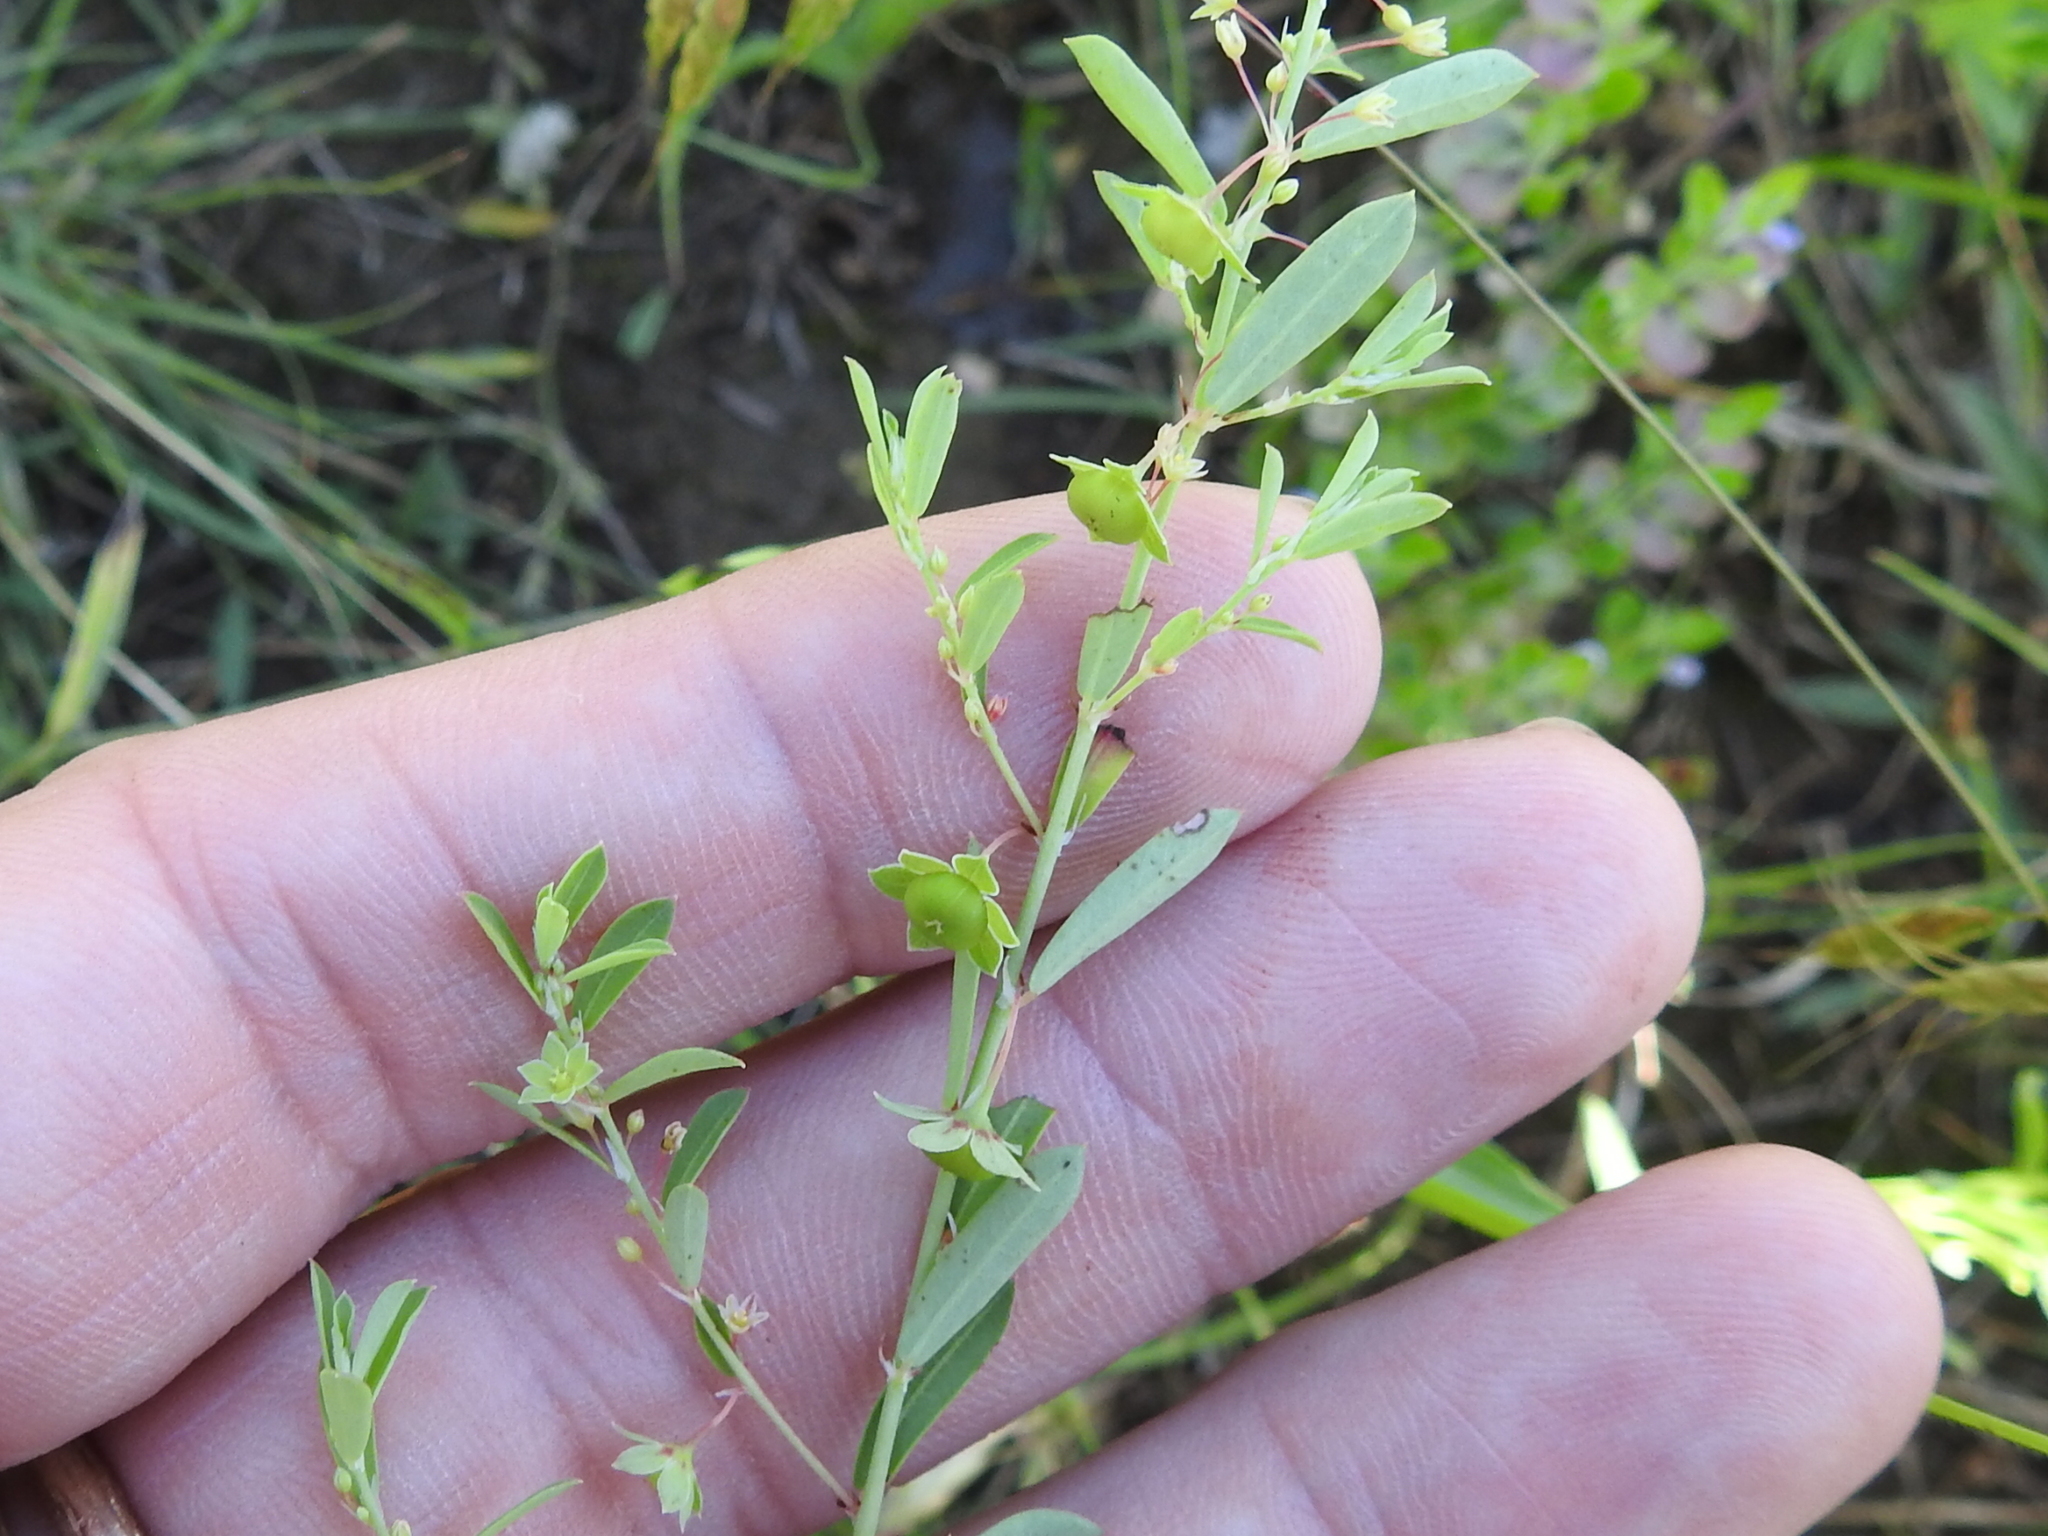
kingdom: Plantae
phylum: Tracheophyta
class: Magnoliopsida
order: Malpighiales
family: Phyllanthaceae
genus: Phyllanthus
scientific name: Phyllanthus polygonoides
